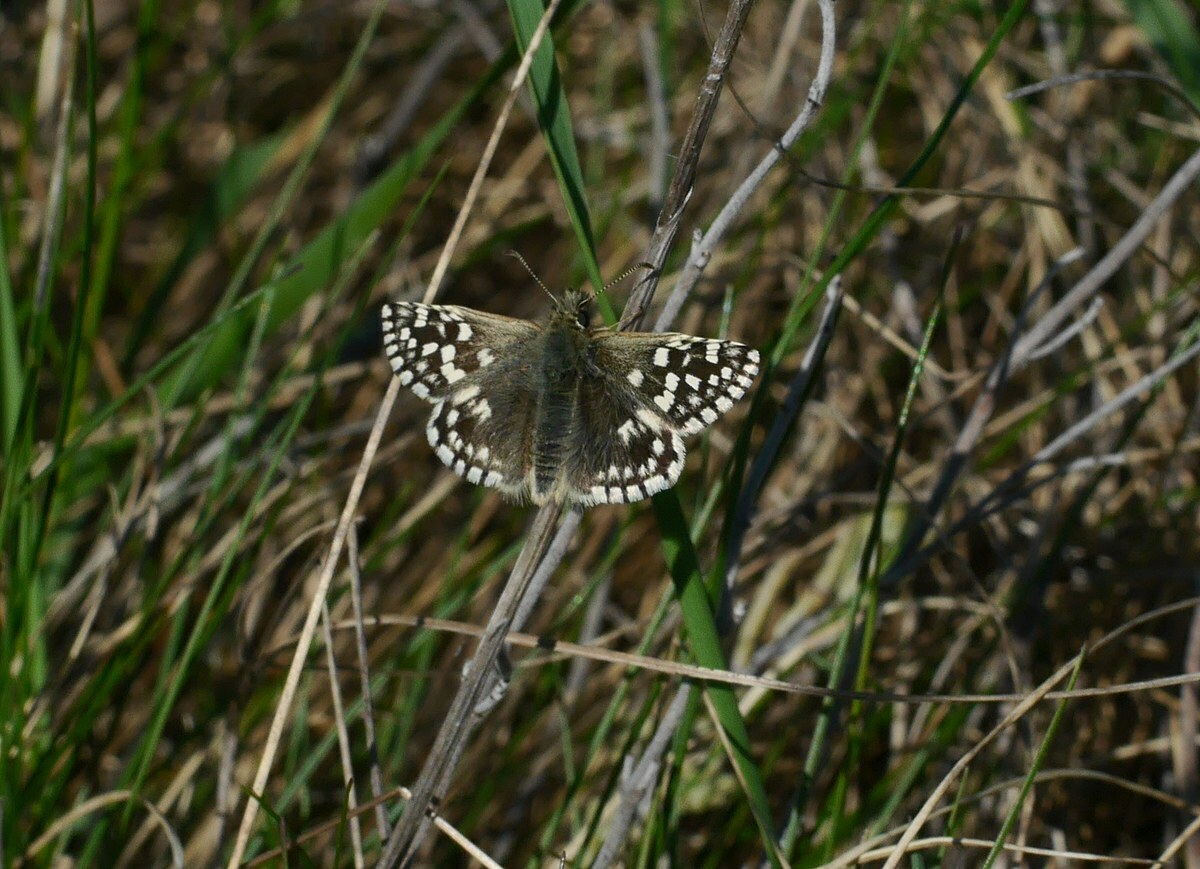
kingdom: Animalia
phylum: Arthropoda
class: Insecta
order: Lepidoptera
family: Hesperiidae
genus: Pyrgus
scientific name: Pyrgus malvae
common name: Grizzled skipper
